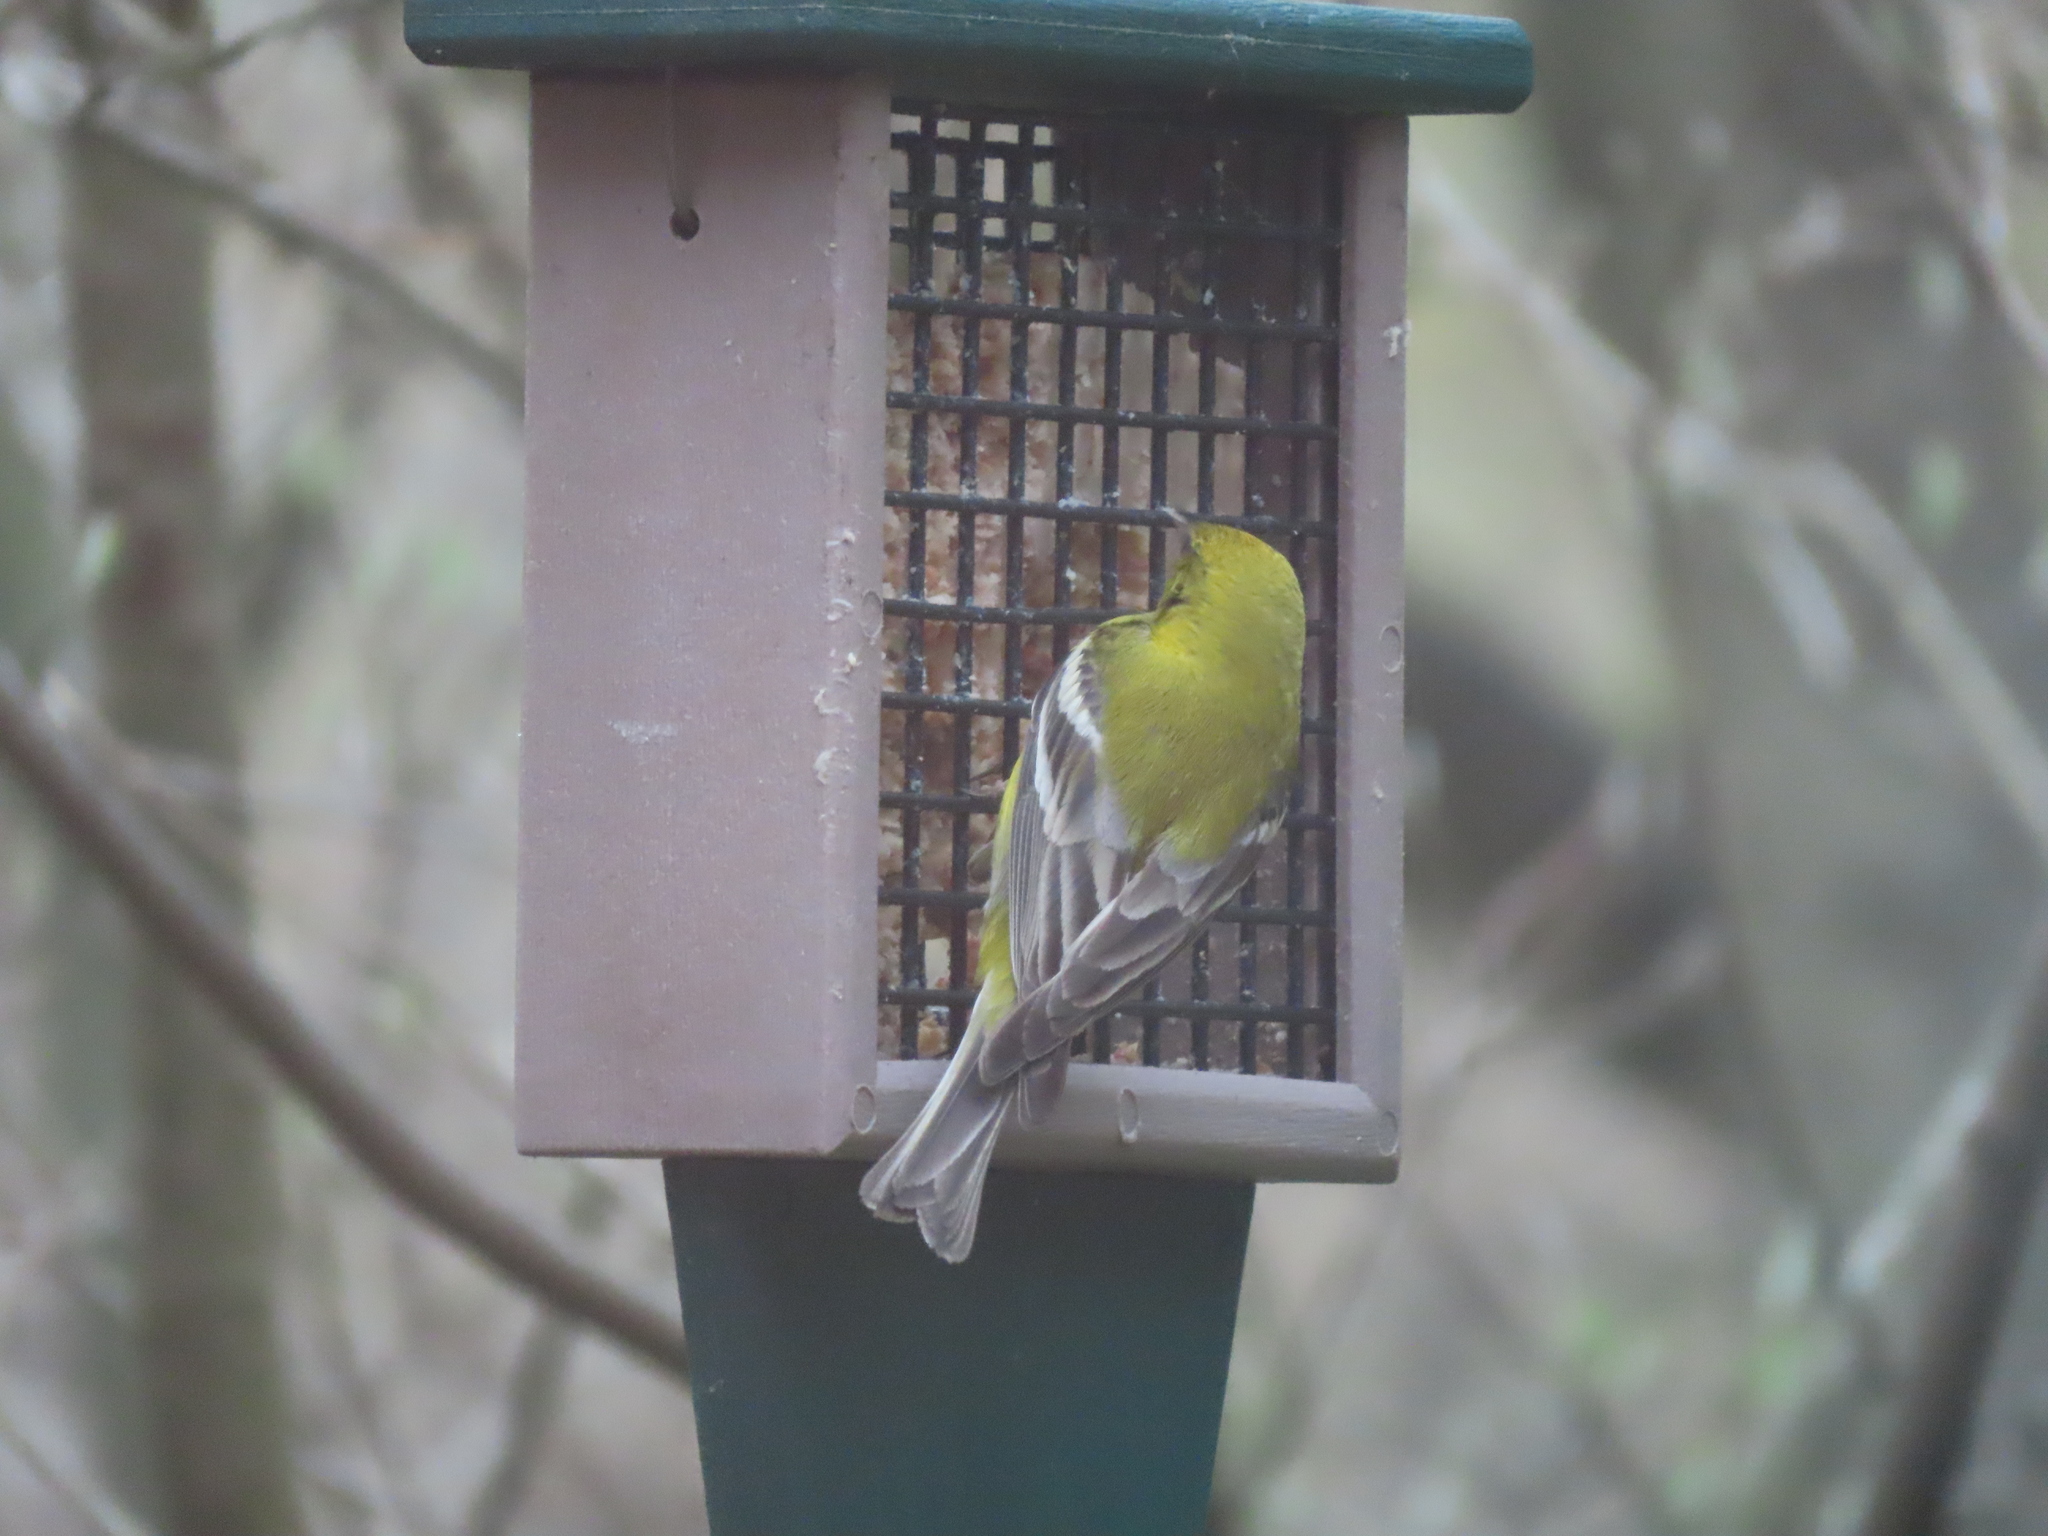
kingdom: Animalia
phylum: Chordata
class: Aves
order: Passeriformes
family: Parulidae
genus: Setophaga
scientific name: Setophaga pinus
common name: Pine warbler
